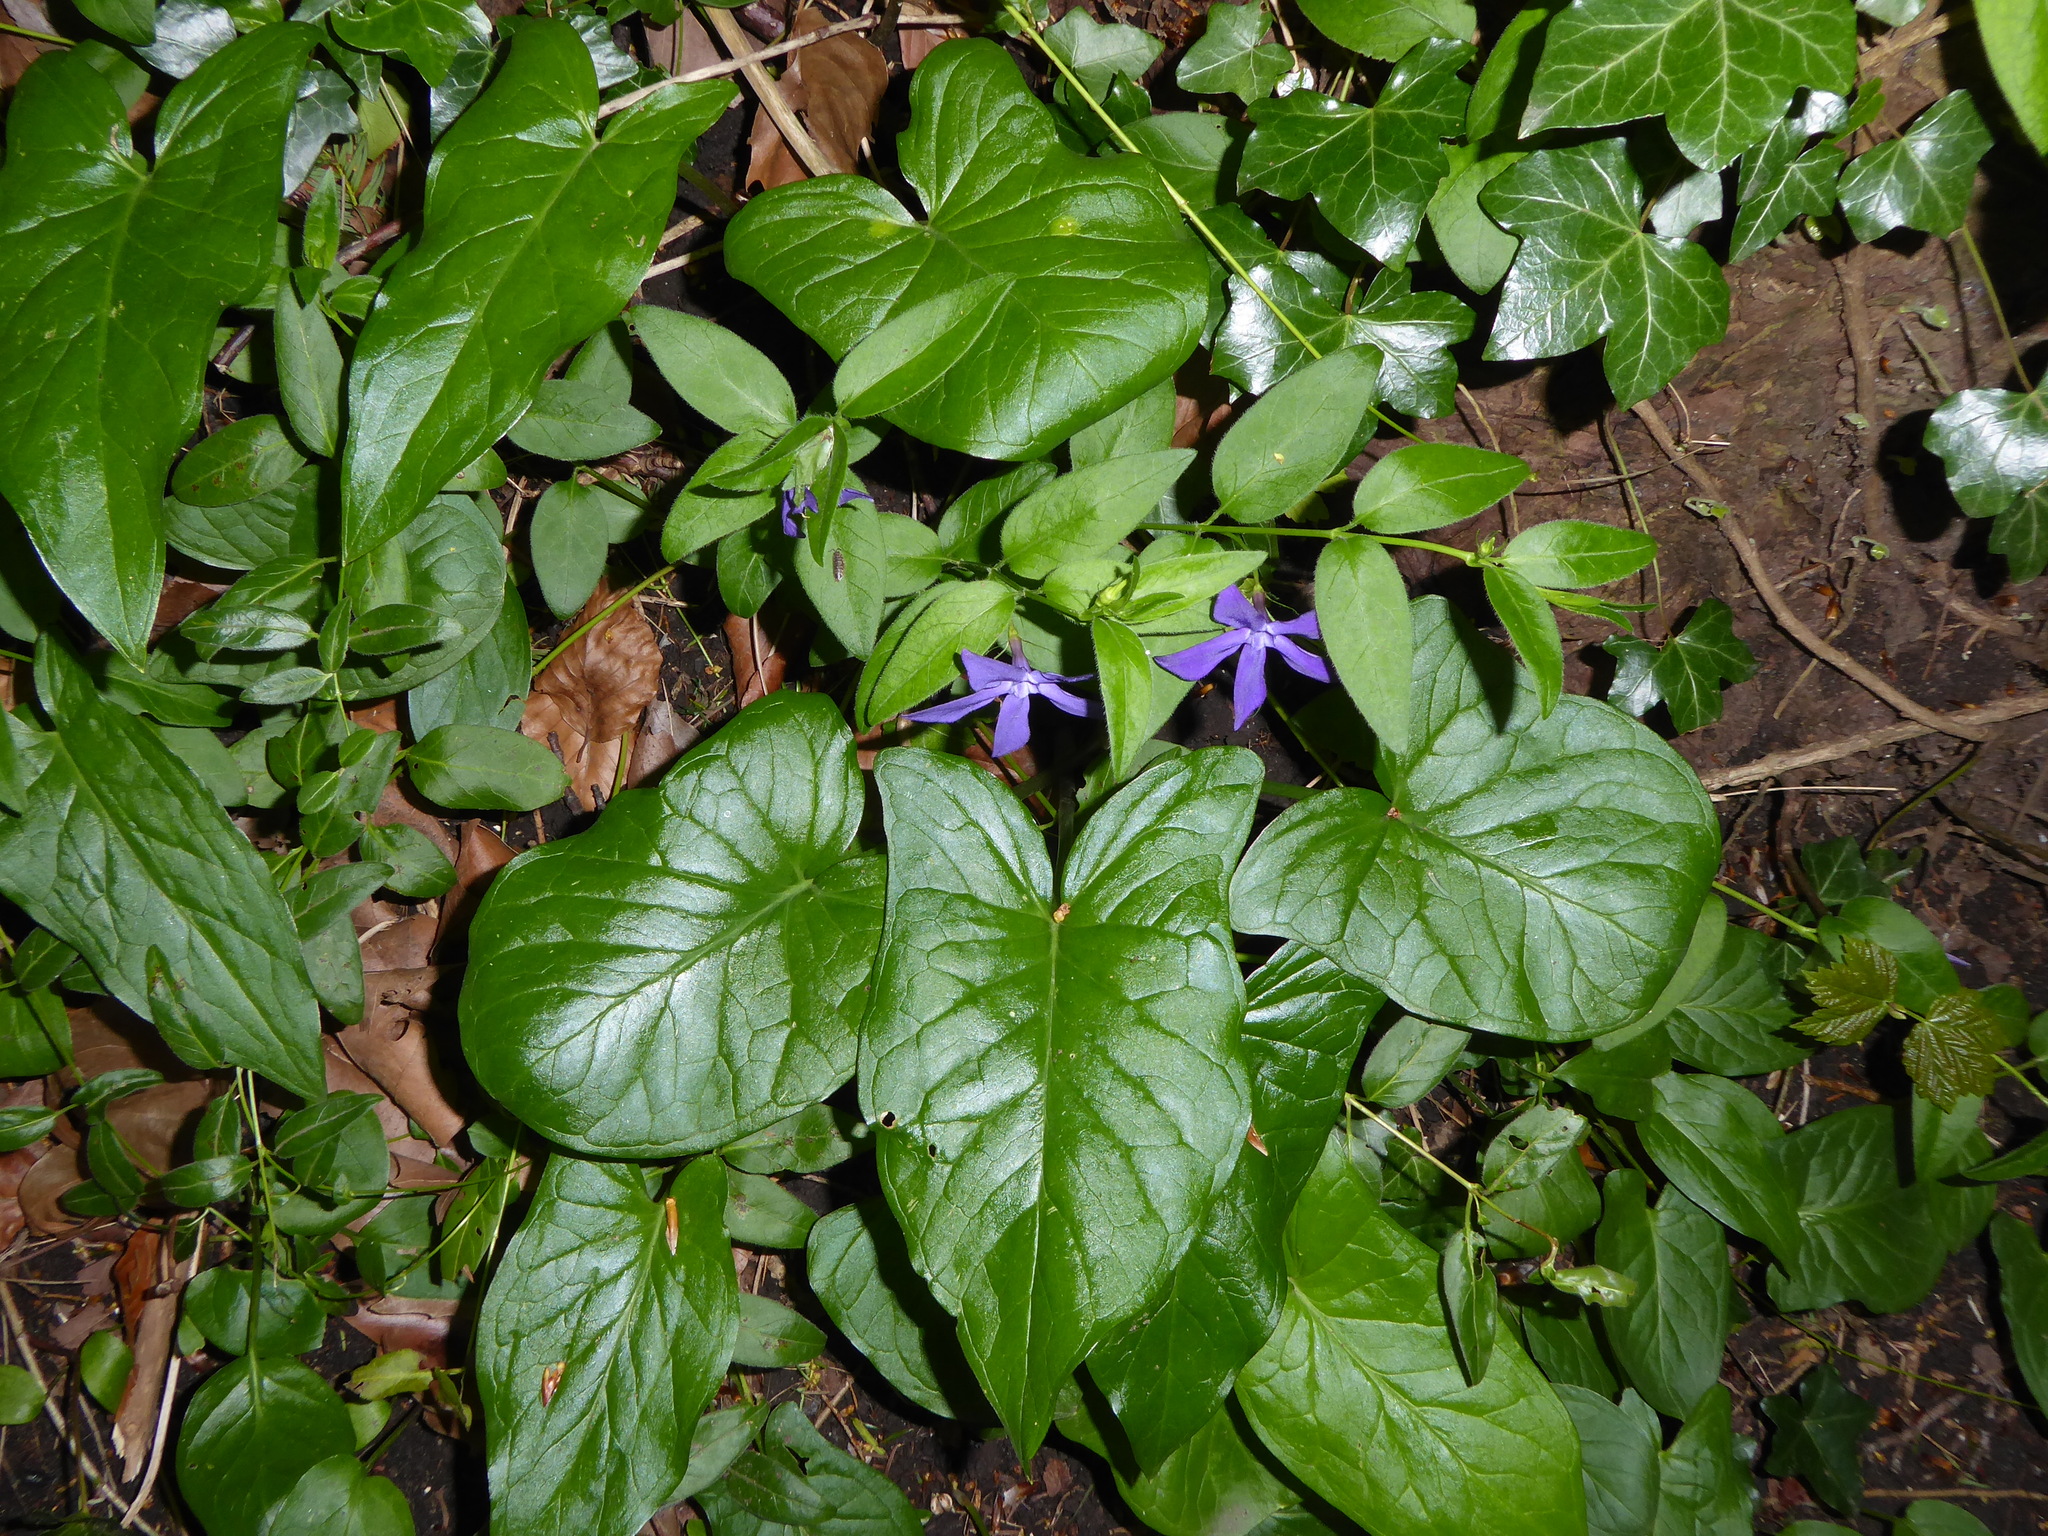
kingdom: Plantae
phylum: Tracheophyta
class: Liliopsida
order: Alismatales
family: Araceae
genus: Arum
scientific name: Arum maculatum
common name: Lords-and-ladies
